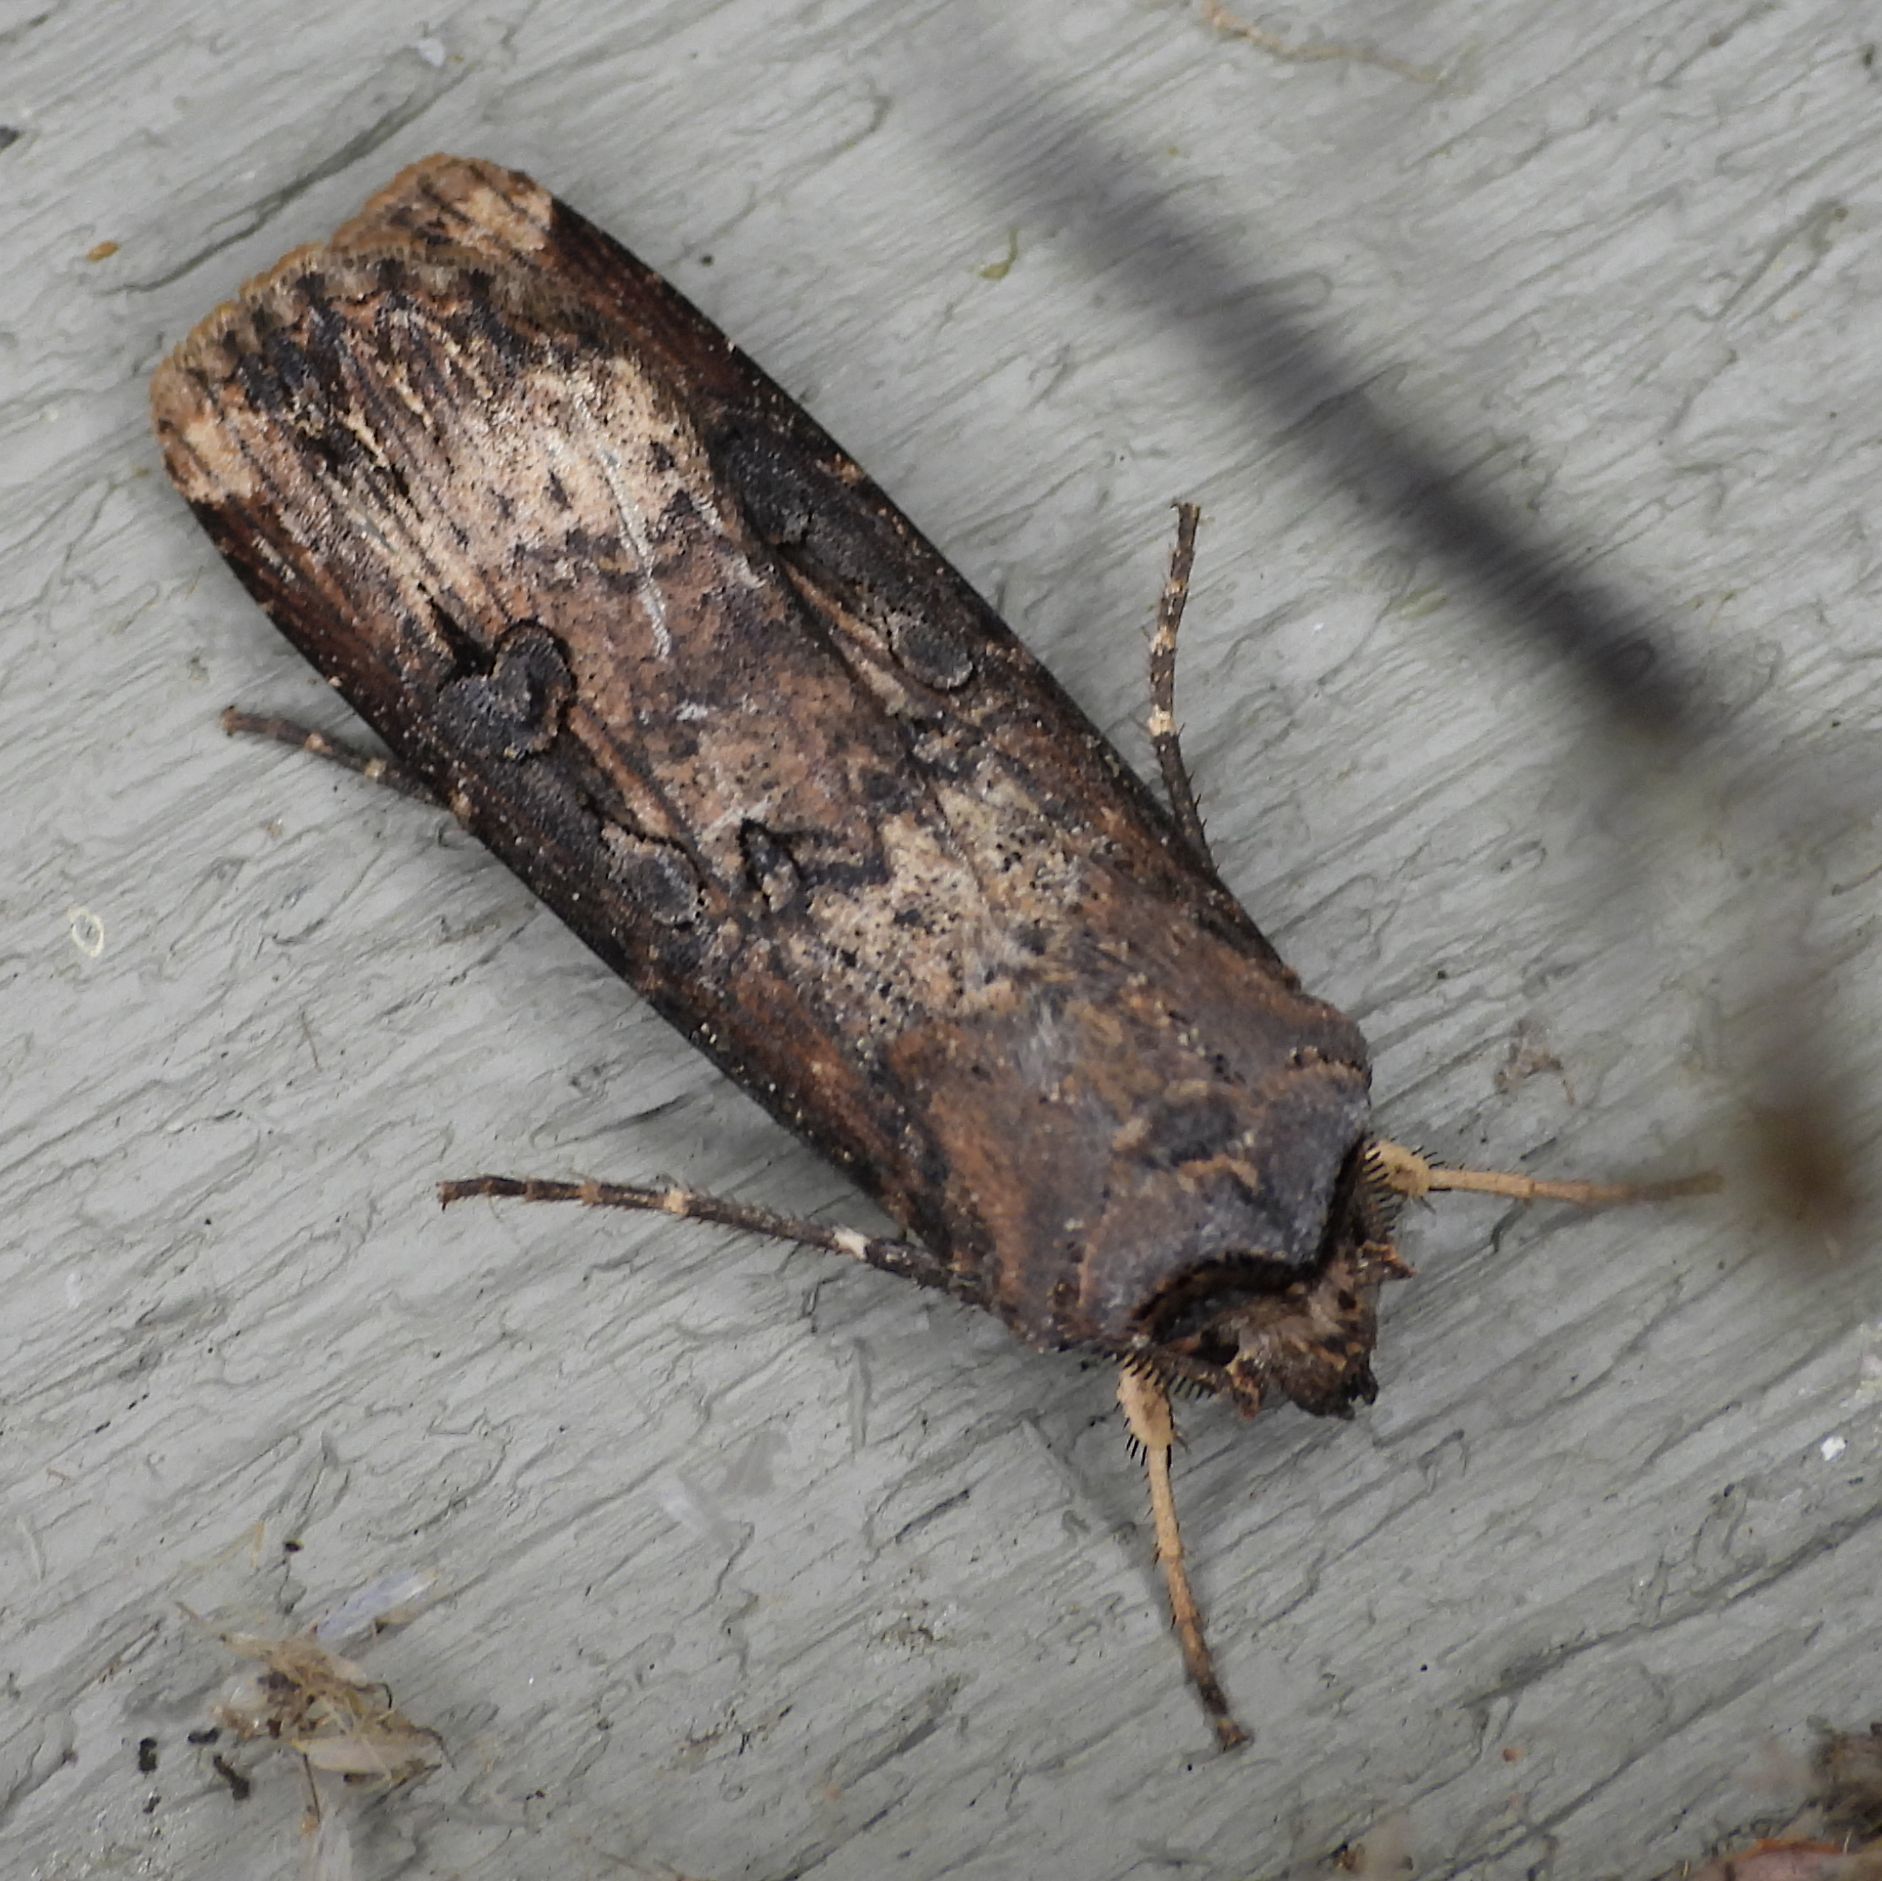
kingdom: Animalia
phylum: Arthropoda
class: Insecta
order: Lepidoptera
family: Noctuidae
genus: Agrotis
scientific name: Agrotis ipsilon
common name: Dark sword-grass
